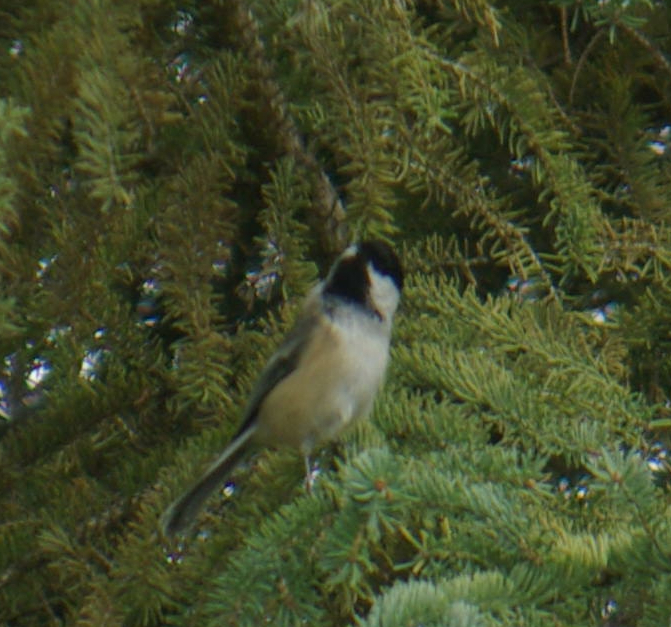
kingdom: Animalia
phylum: Chordata
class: Aves
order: Passeriformes
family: Paridae
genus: Poecile
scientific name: Poecile atricapillus
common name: Black-capped chickadee
